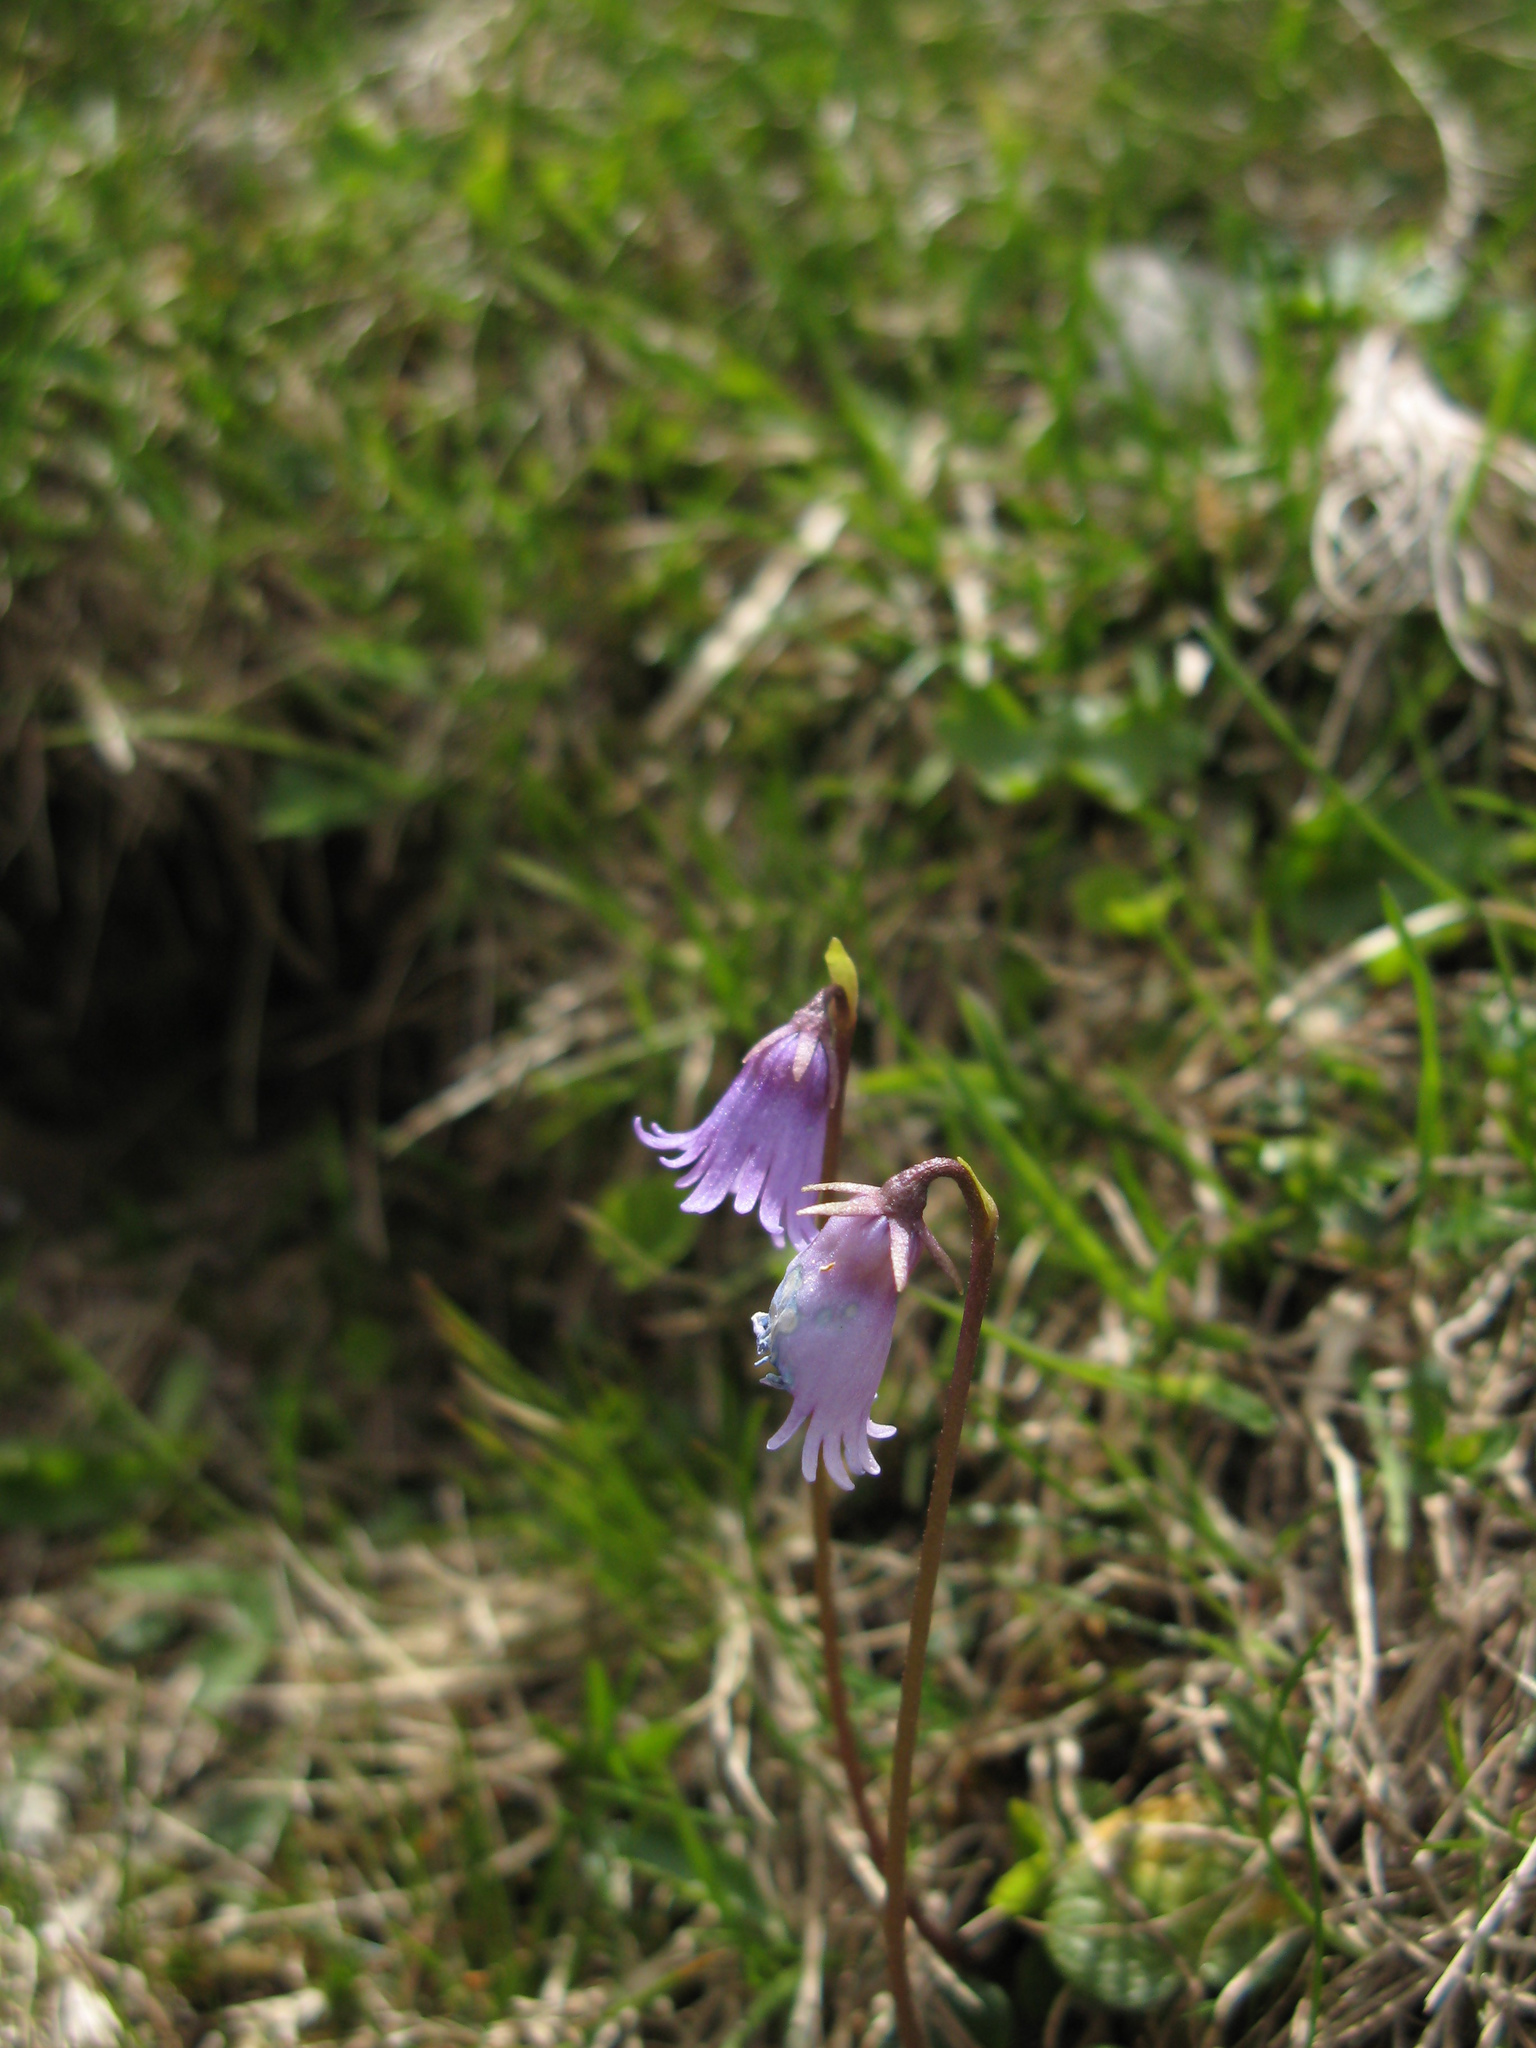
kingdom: Plantae
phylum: Tracheophyta
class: Magnoliopsida
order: Ericales
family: Primulaceae
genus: Soldanella
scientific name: Soldanella alpicola
